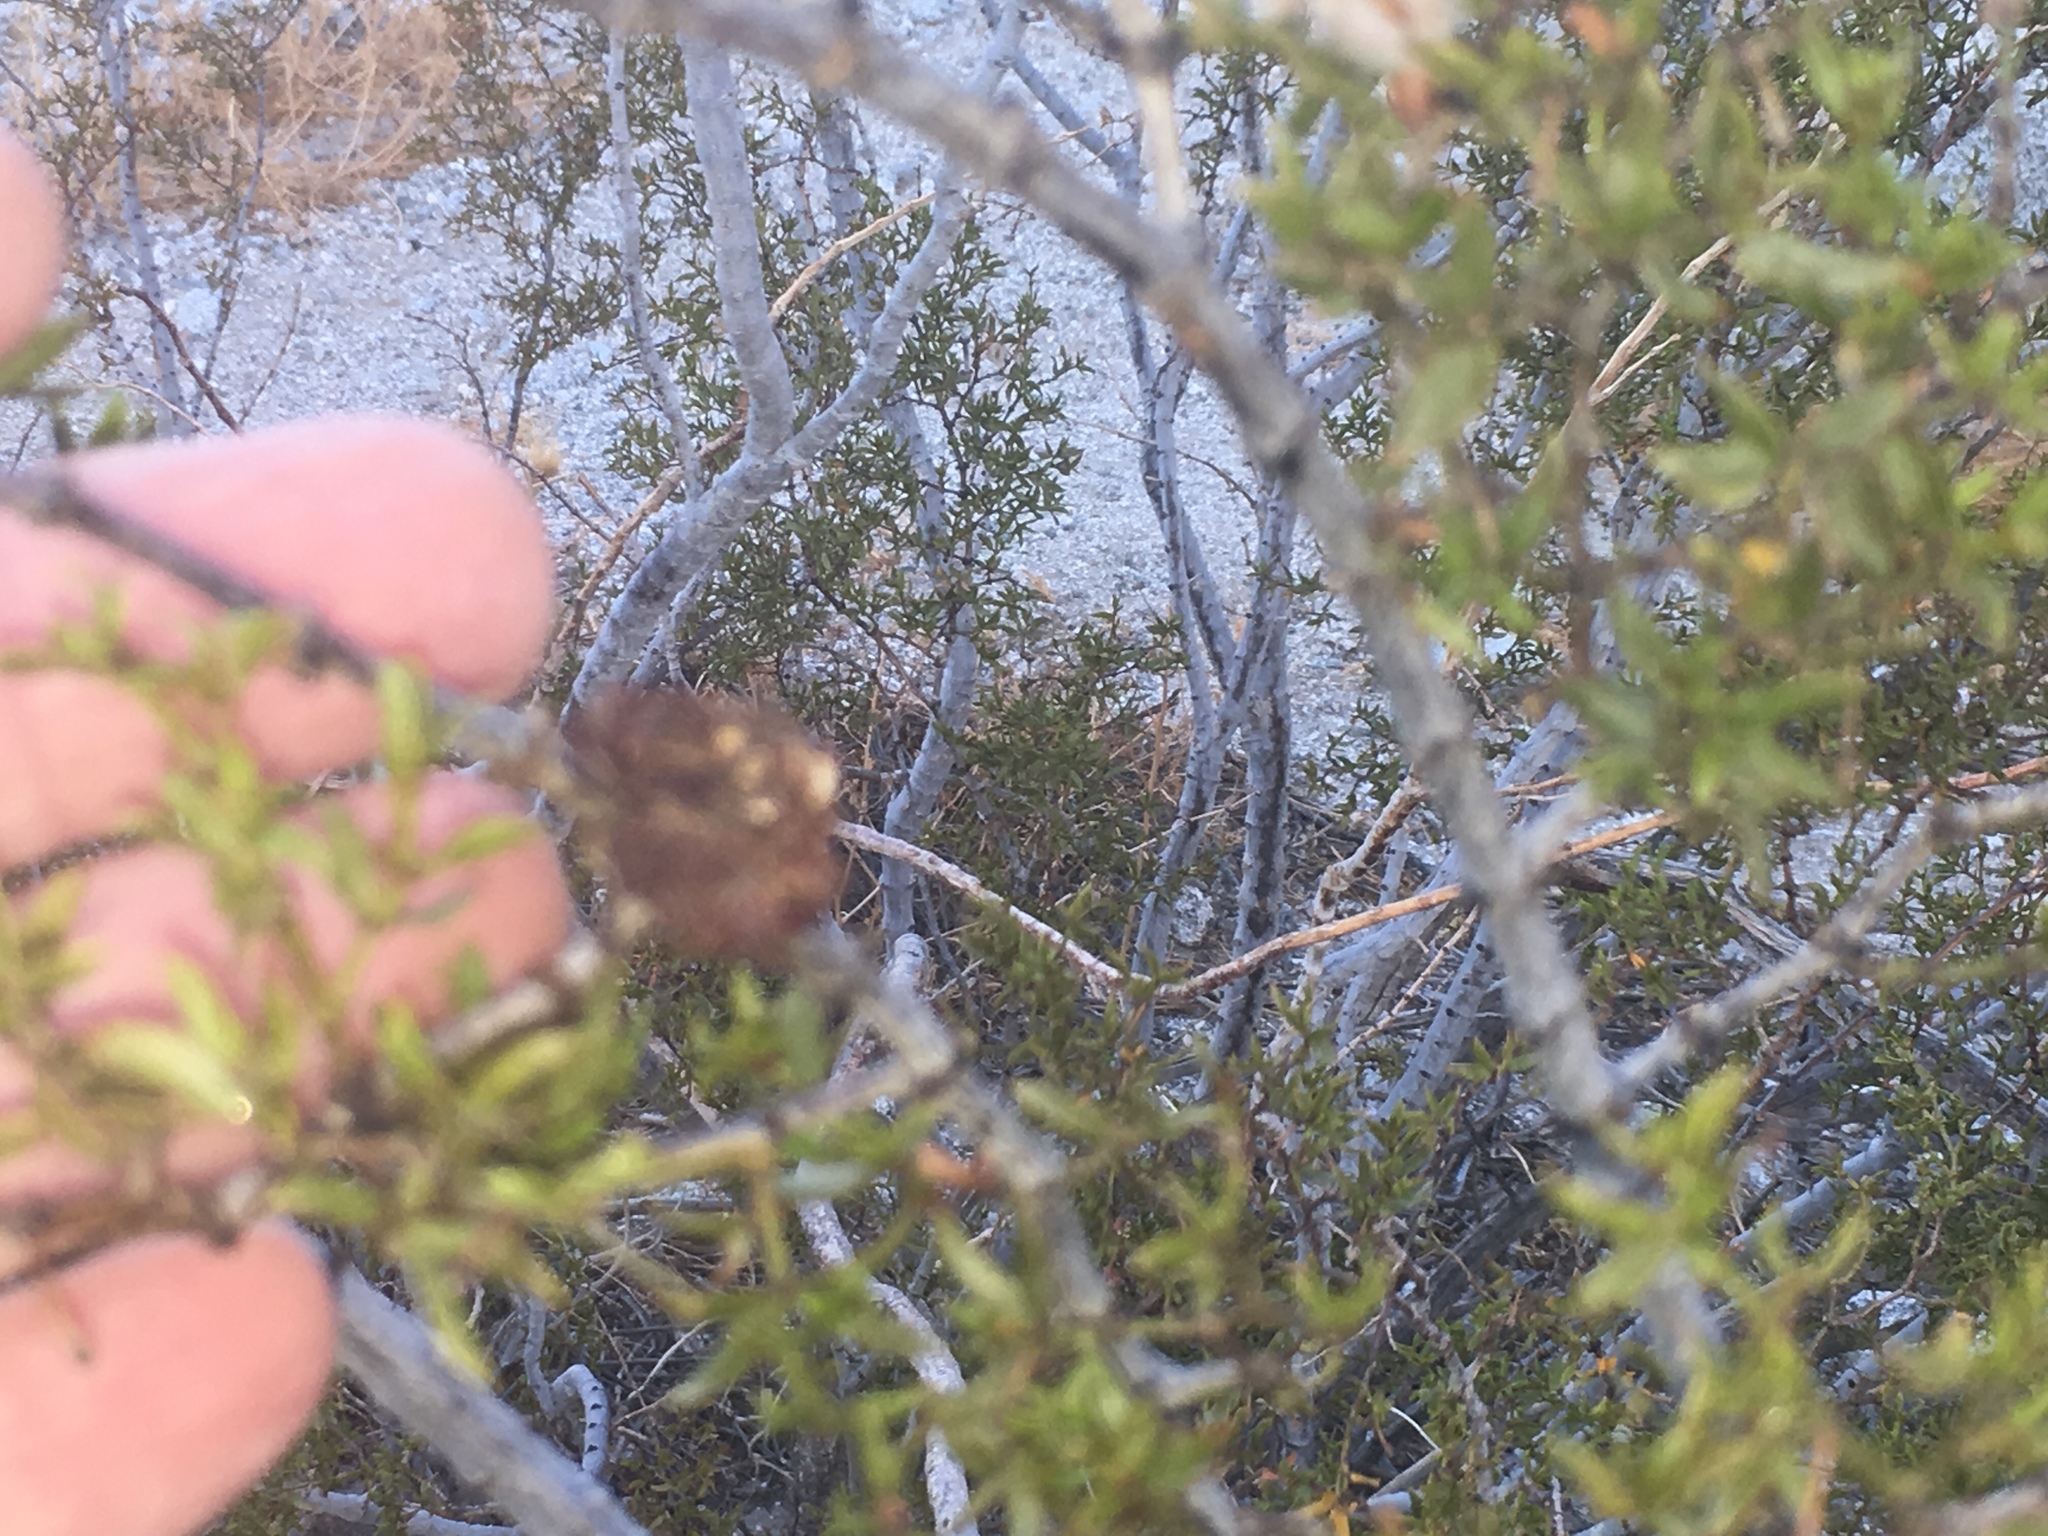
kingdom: Animalia
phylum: Arthropoda
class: Insecta
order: Diptera
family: Cecidomyiidae
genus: Asphondylia
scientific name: Asphondylia auripila
